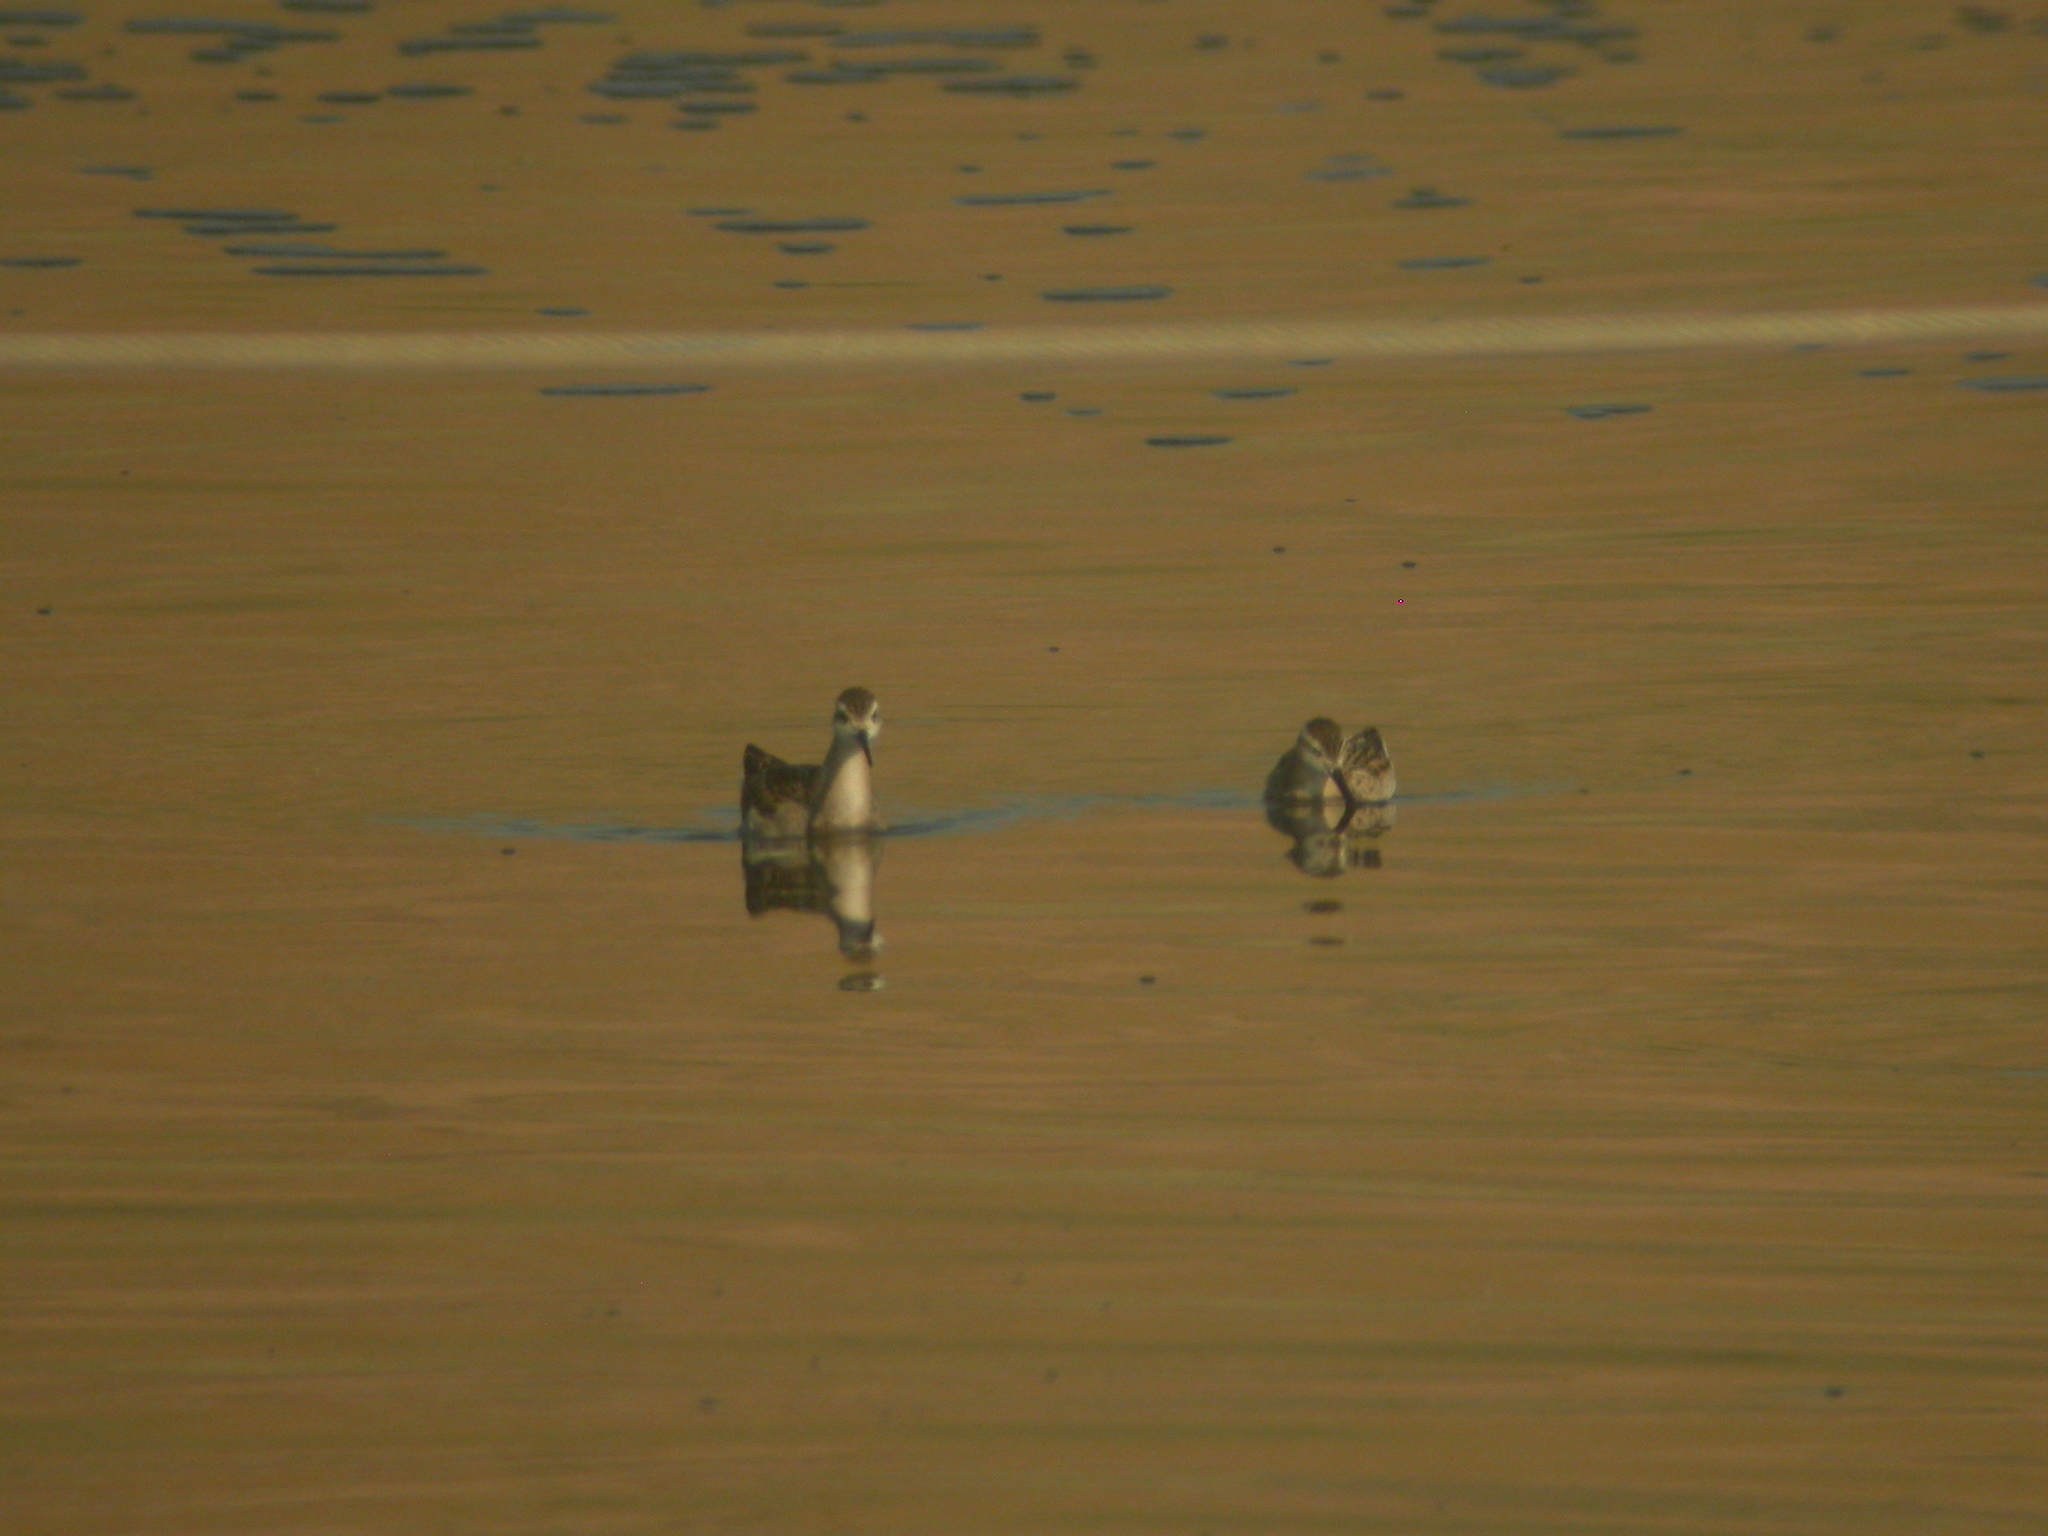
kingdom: Animalia
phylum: Chordata
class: Aves
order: Charadriiformes
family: Scolopacidae
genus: Phalaropus
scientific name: Phalaropus tricolor
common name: Wilson's phalarope
